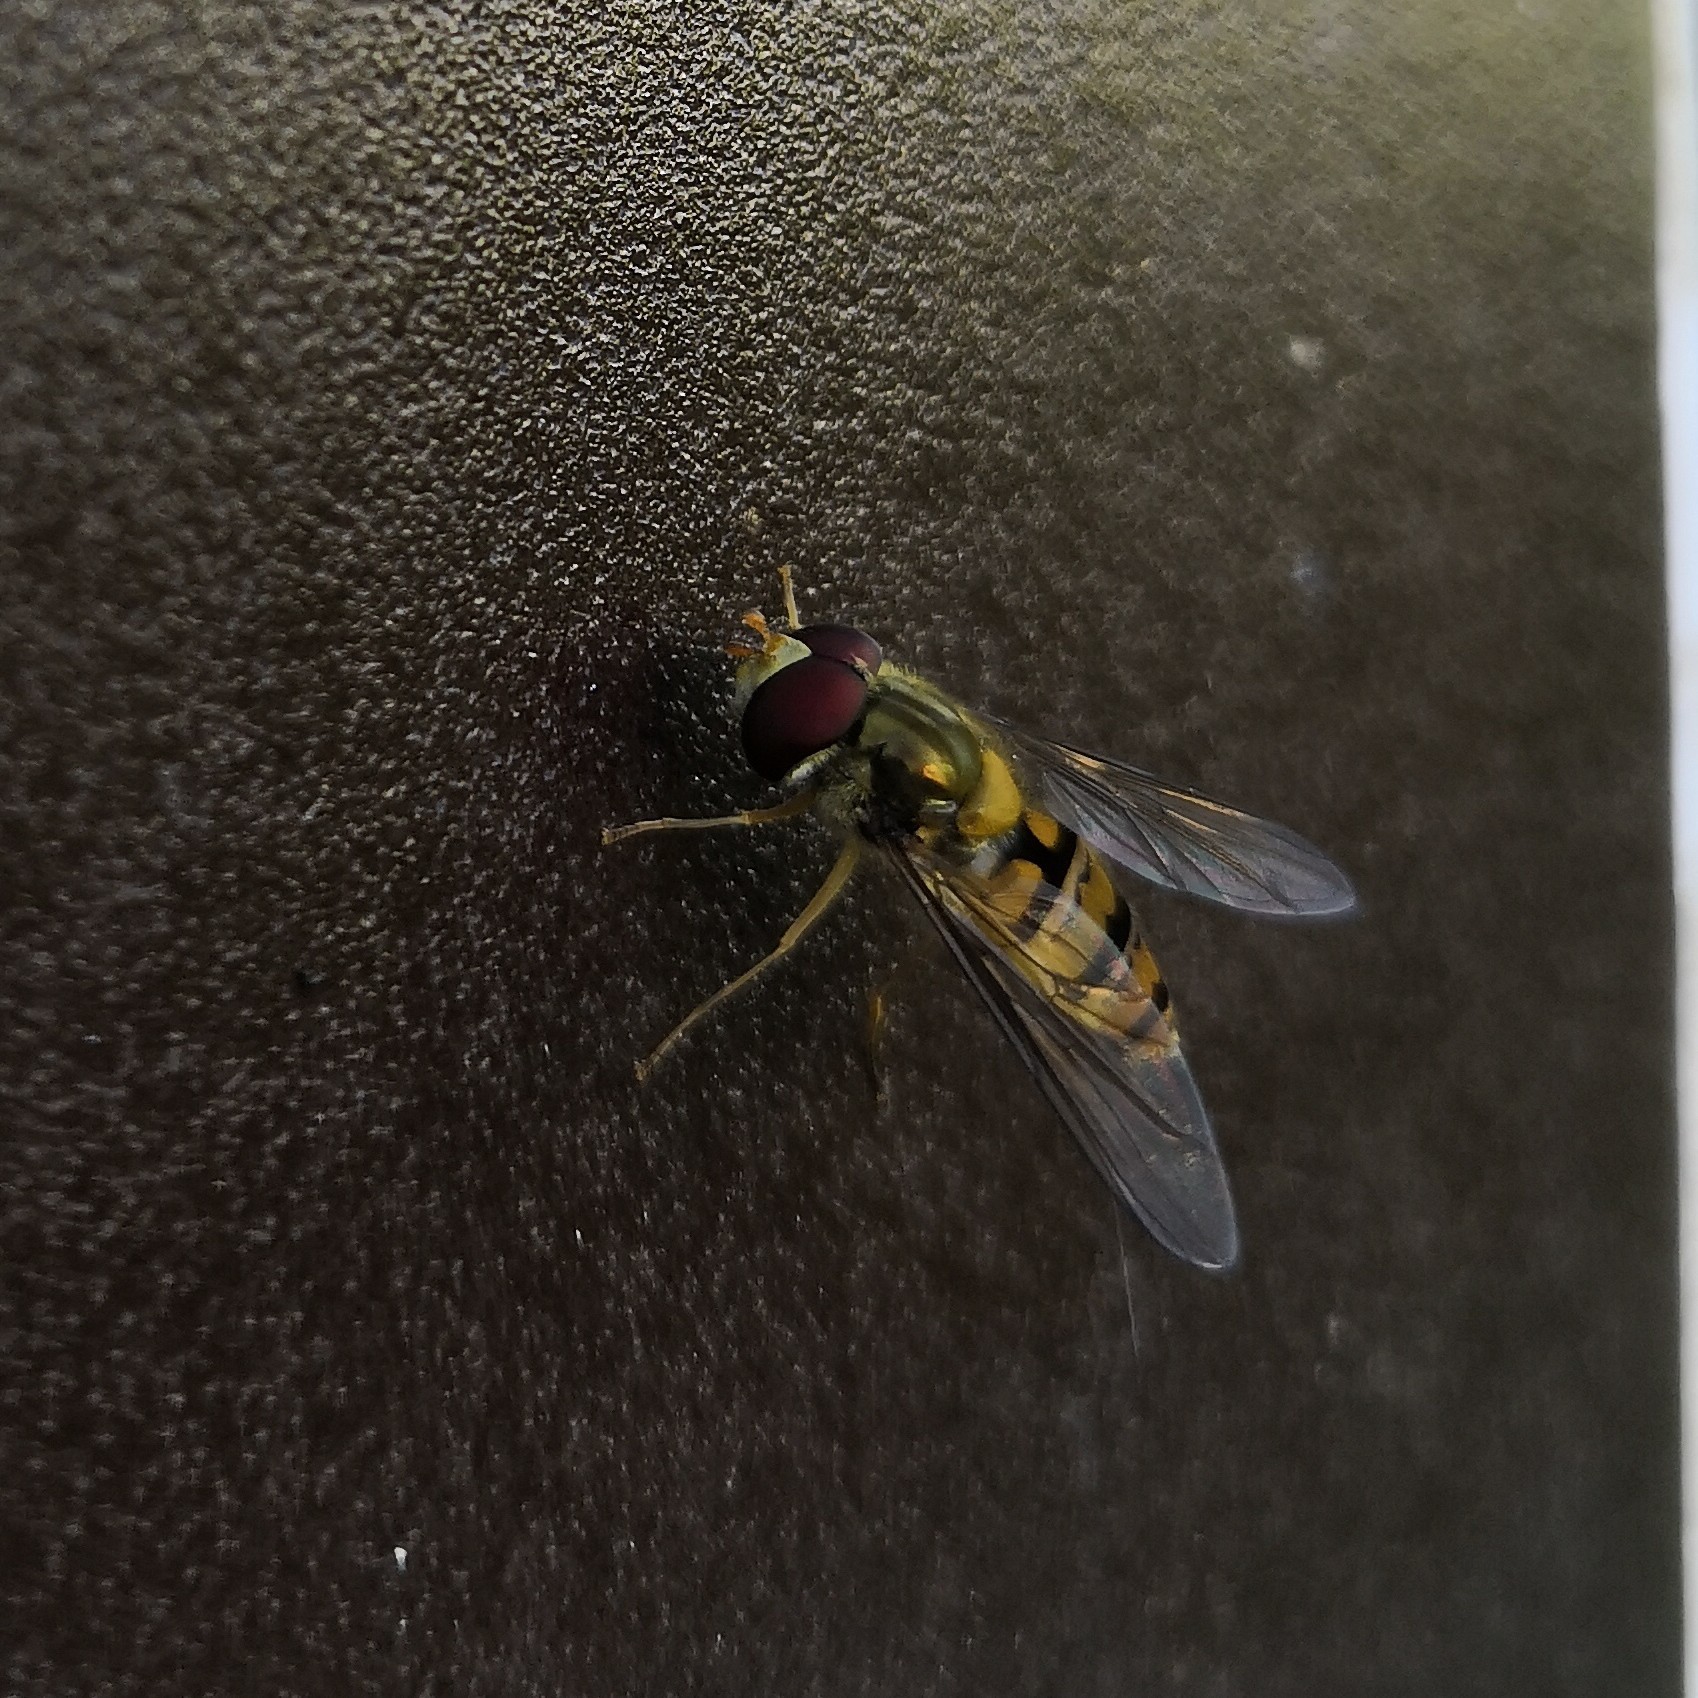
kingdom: Animalia
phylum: Arthropoda
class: Insecta
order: Diptera
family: Syrphidae
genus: Episyrphus
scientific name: Episyrphus balteatus
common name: Marmalade hoverfly
